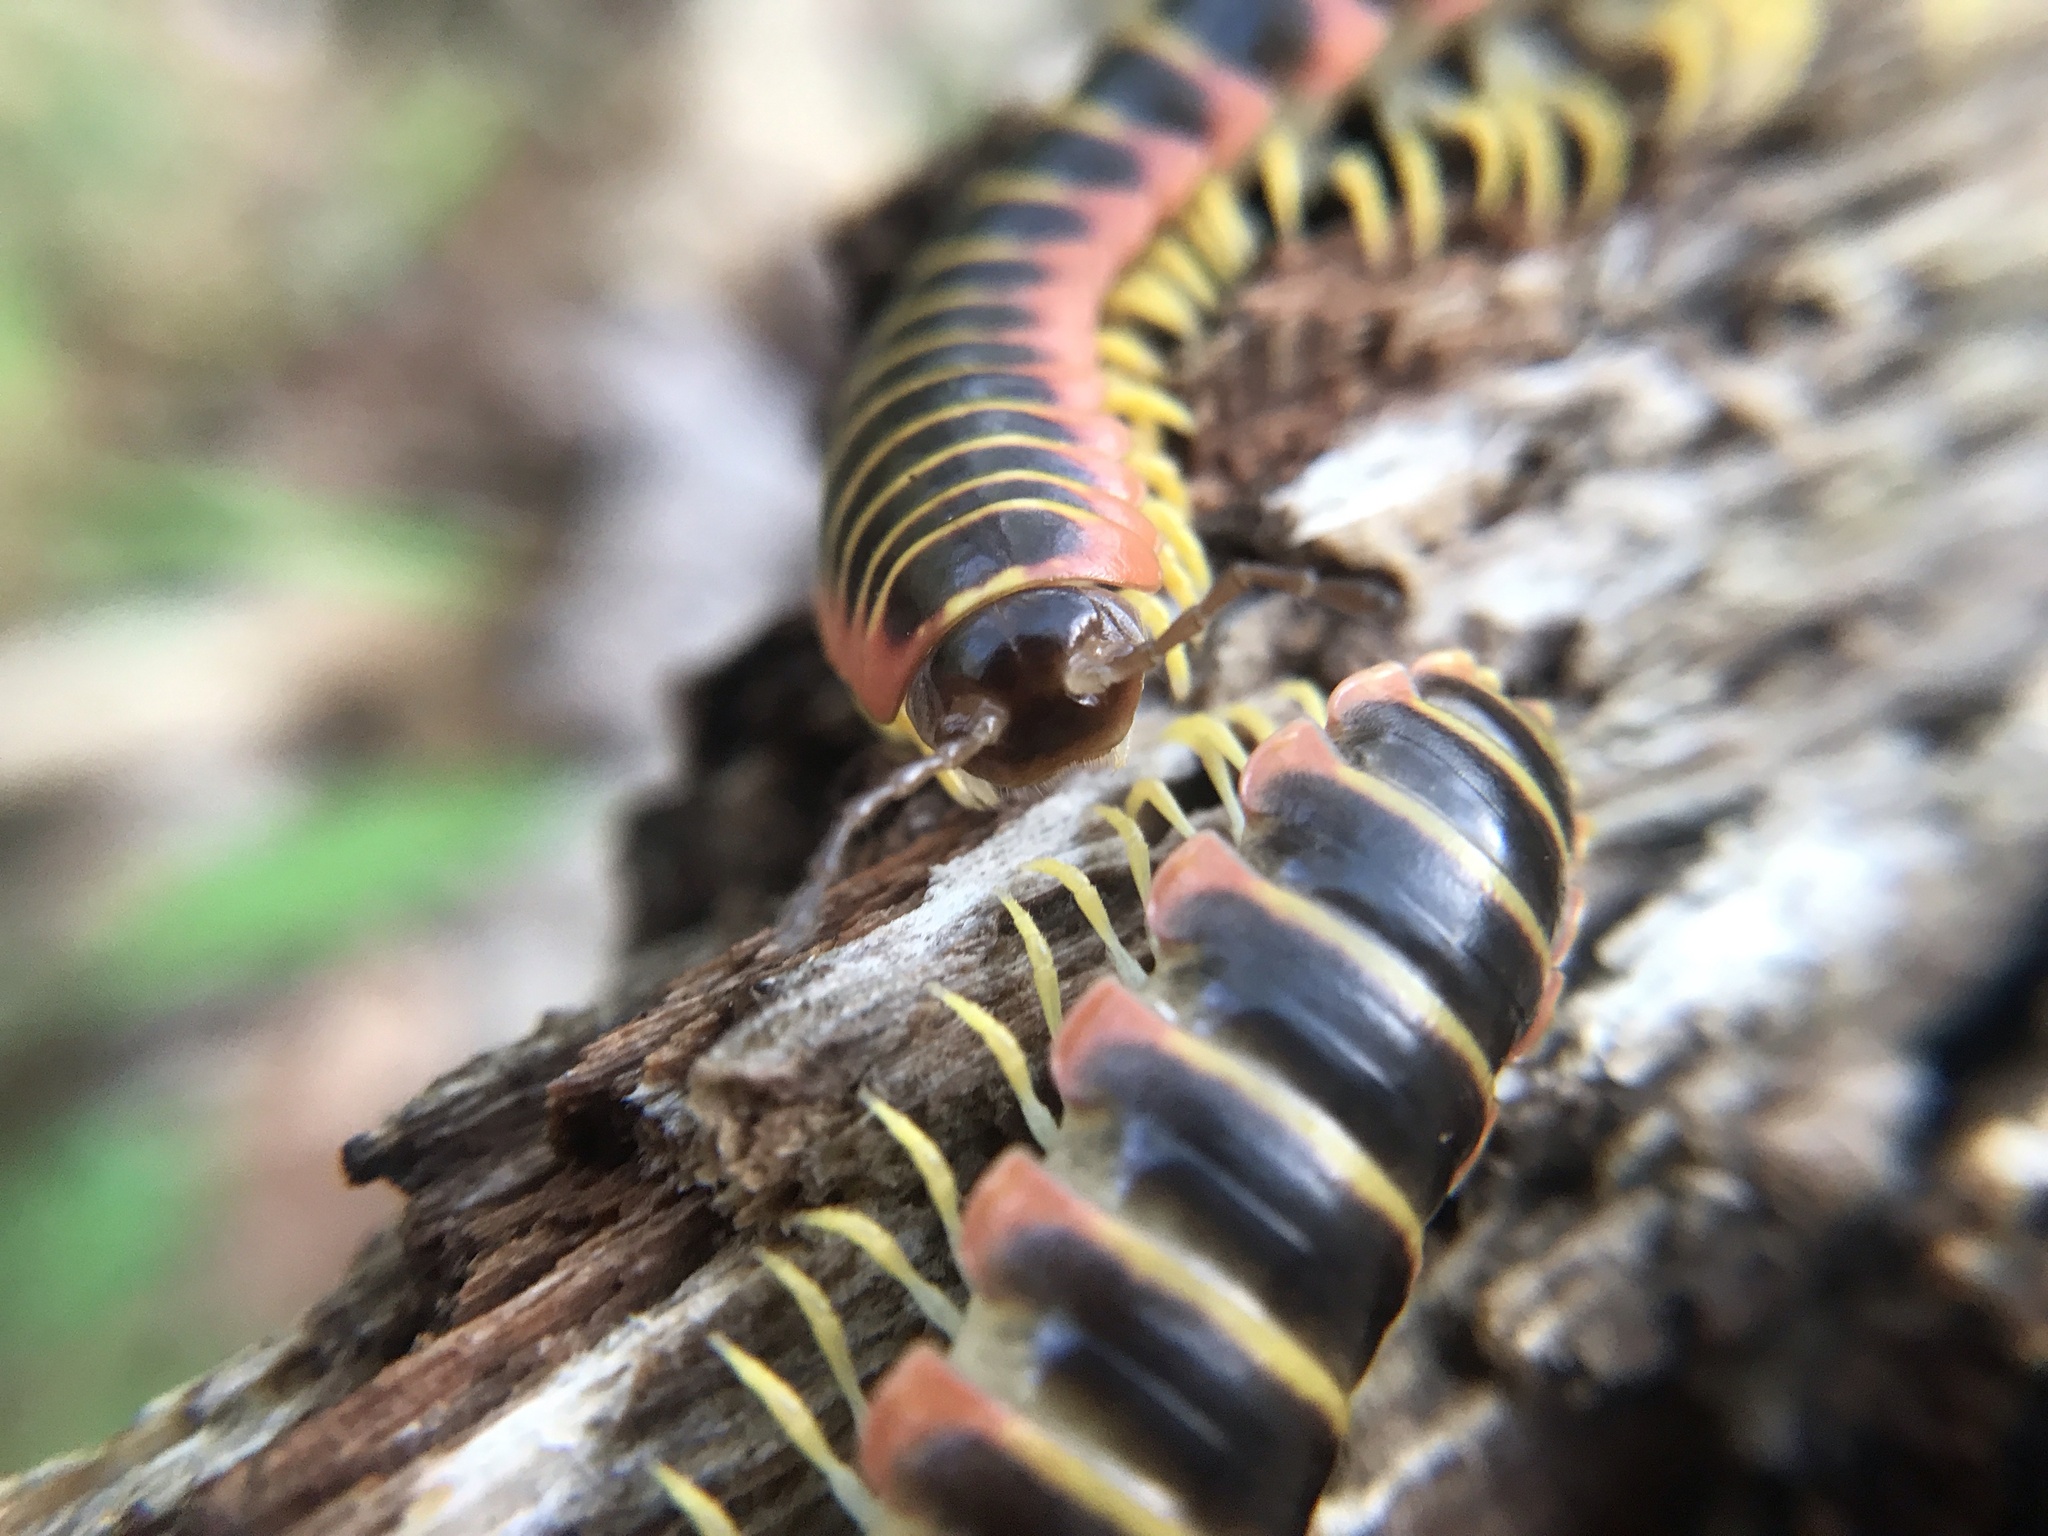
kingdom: Animalia
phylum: Arthropoda
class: Diplopoda
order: Polydesmida
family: Xystodesmidae
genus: Apheloria
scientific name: Apheloria virginiensis
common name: Black-and-gold flat millipede
